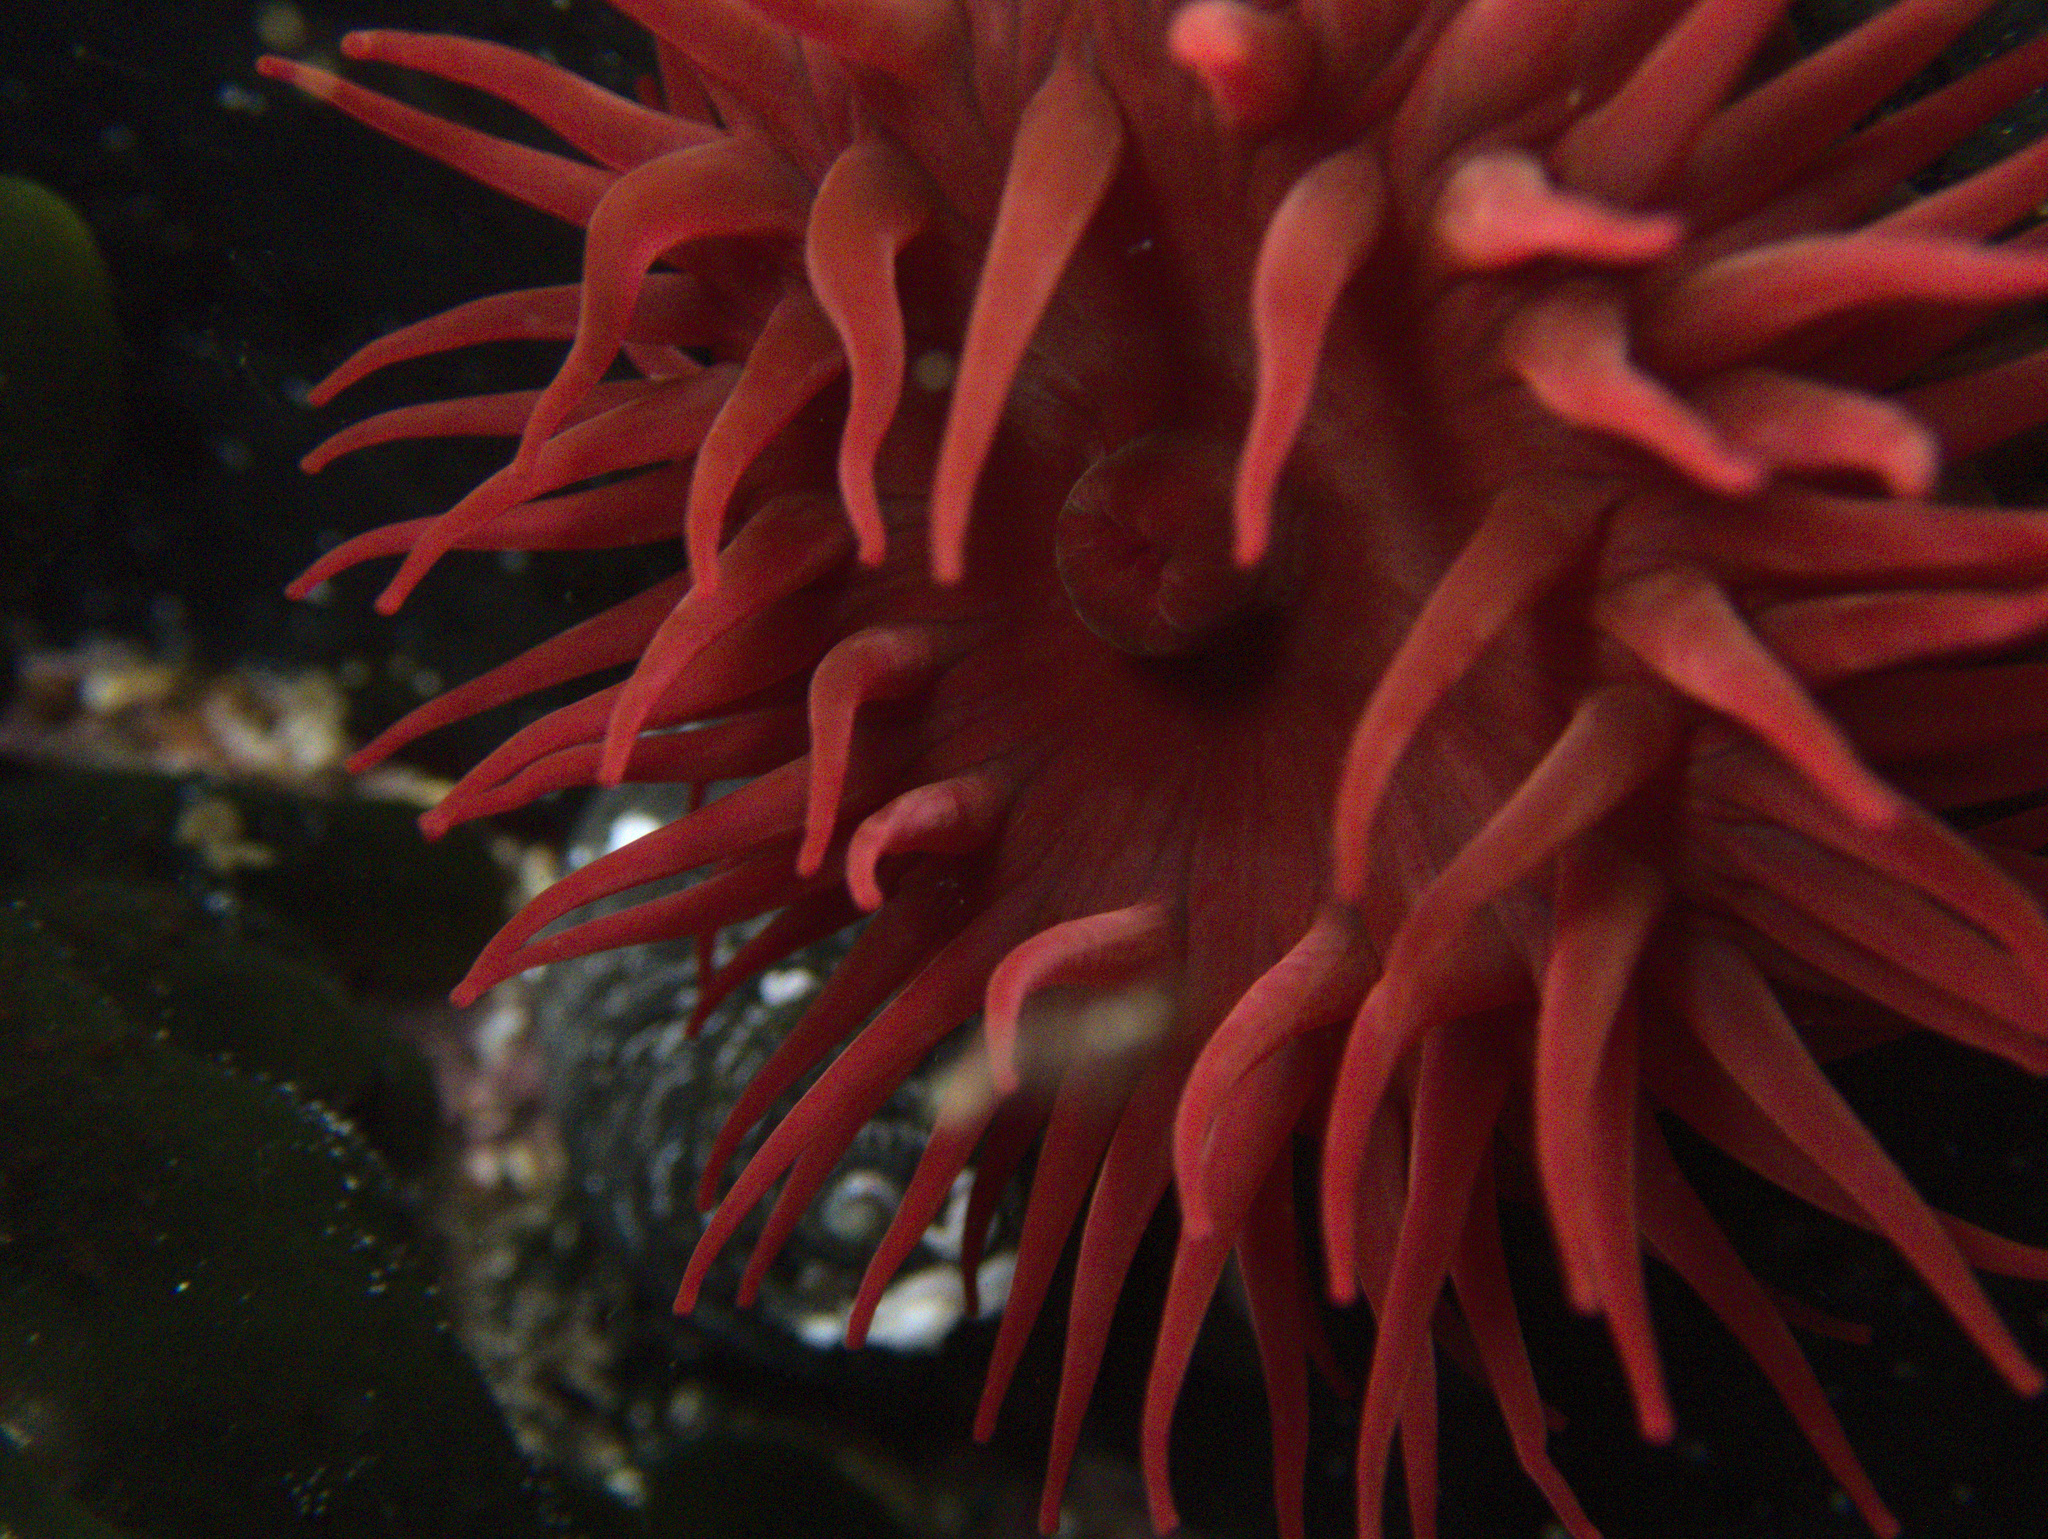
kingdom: Animalia
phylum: Cnidaria
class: Anthozoa
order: Actiniaria
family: Actiniidae
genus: Actinia
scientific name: Actinia tenebrosa
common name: Waratah anemone
